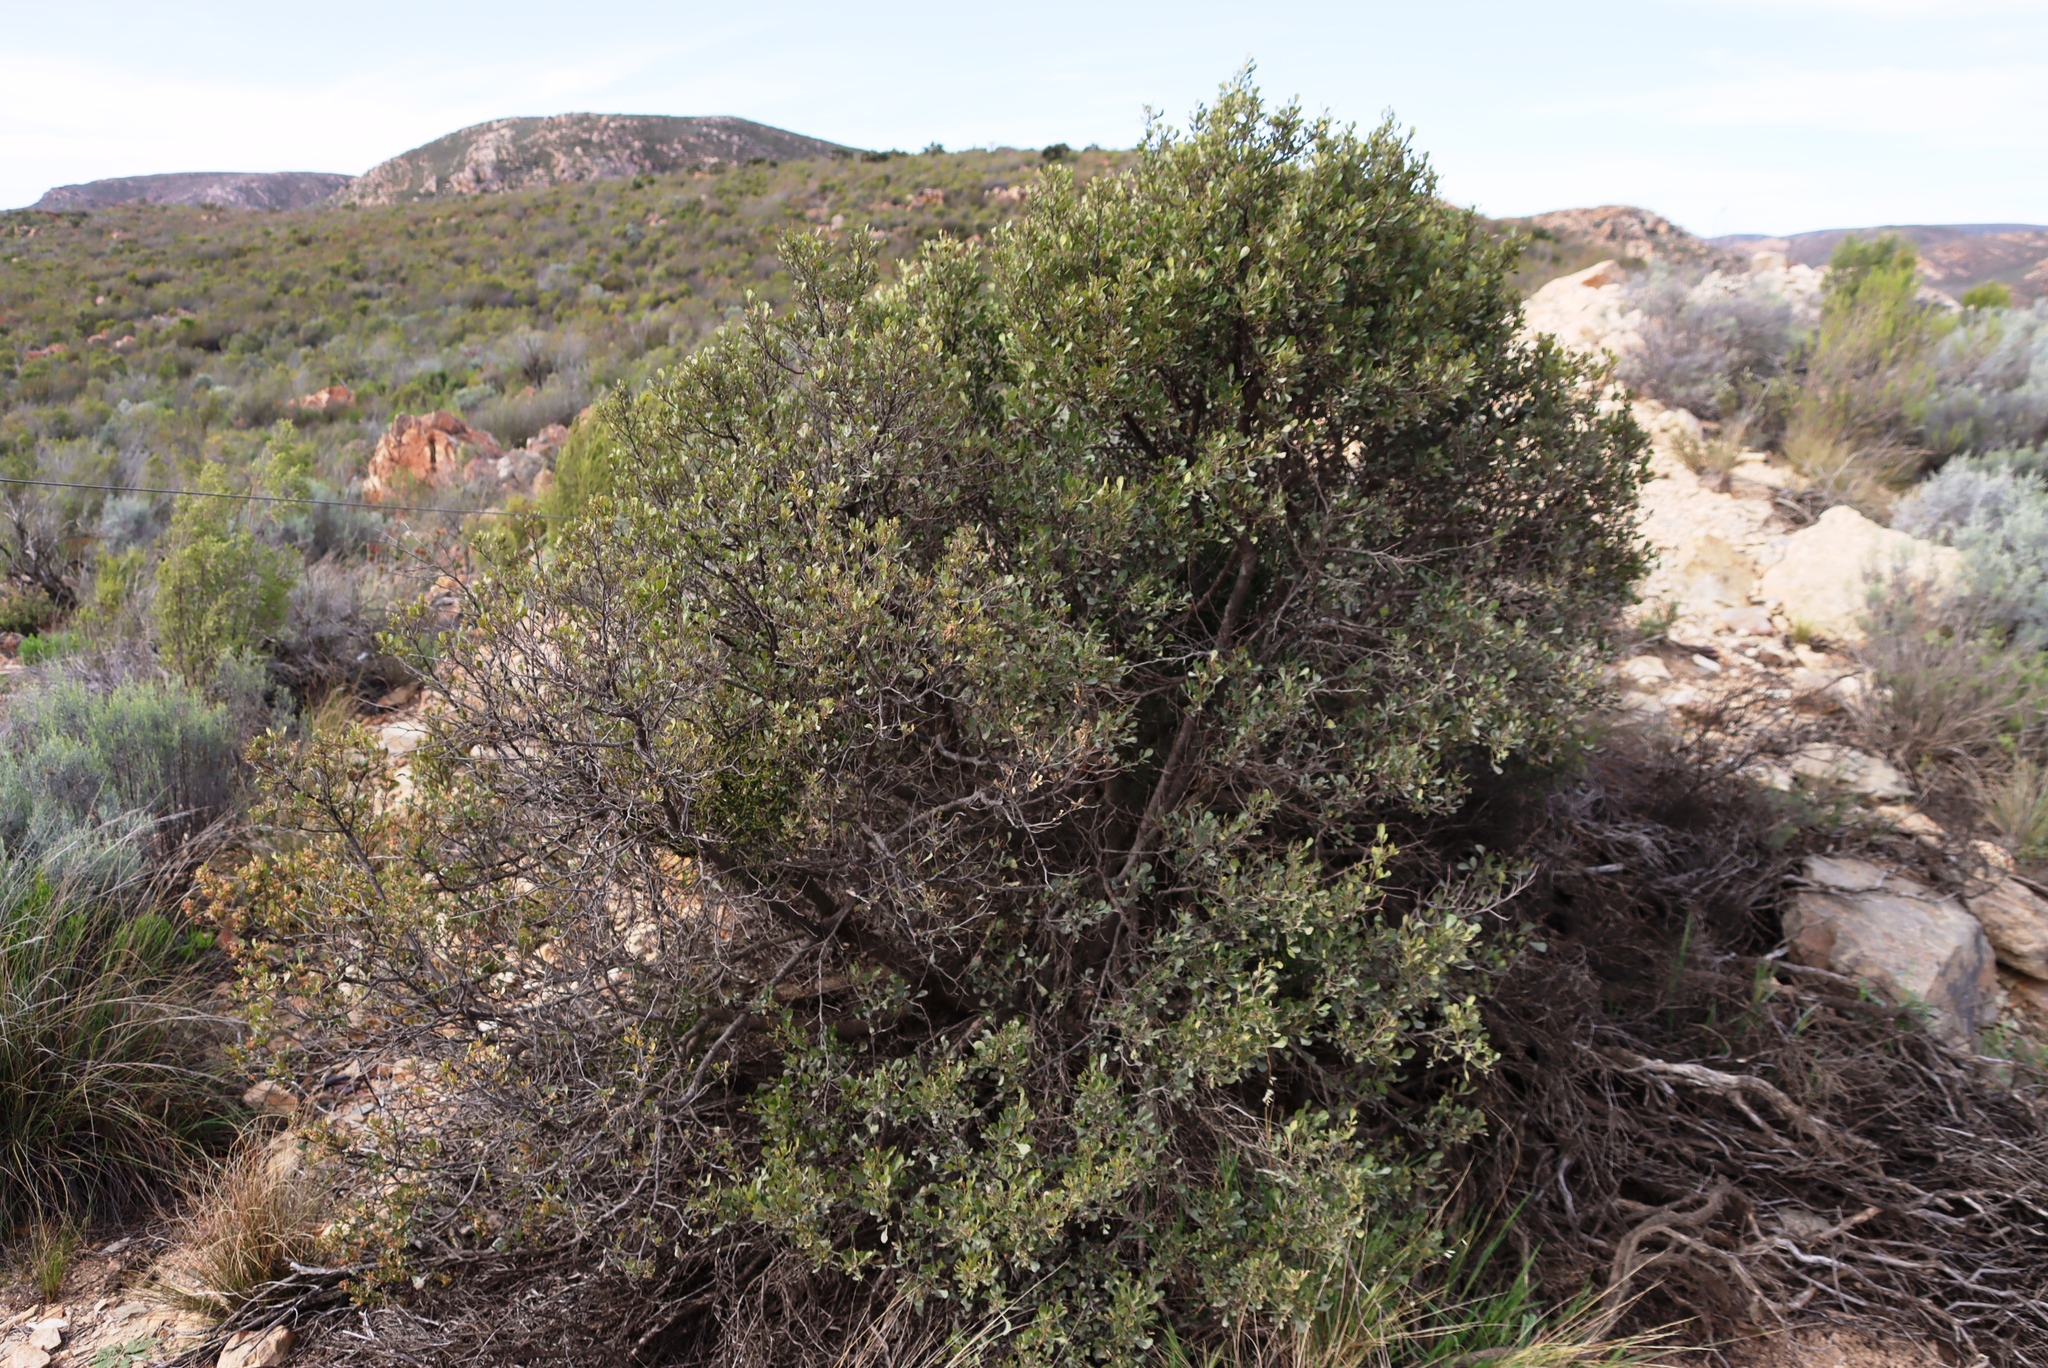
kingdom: Plantae
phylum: Tracheophyta
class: Magnoliopsida
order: Sapindales
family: Anacardiaceae
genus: Searsia
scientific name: Searsia pallens
